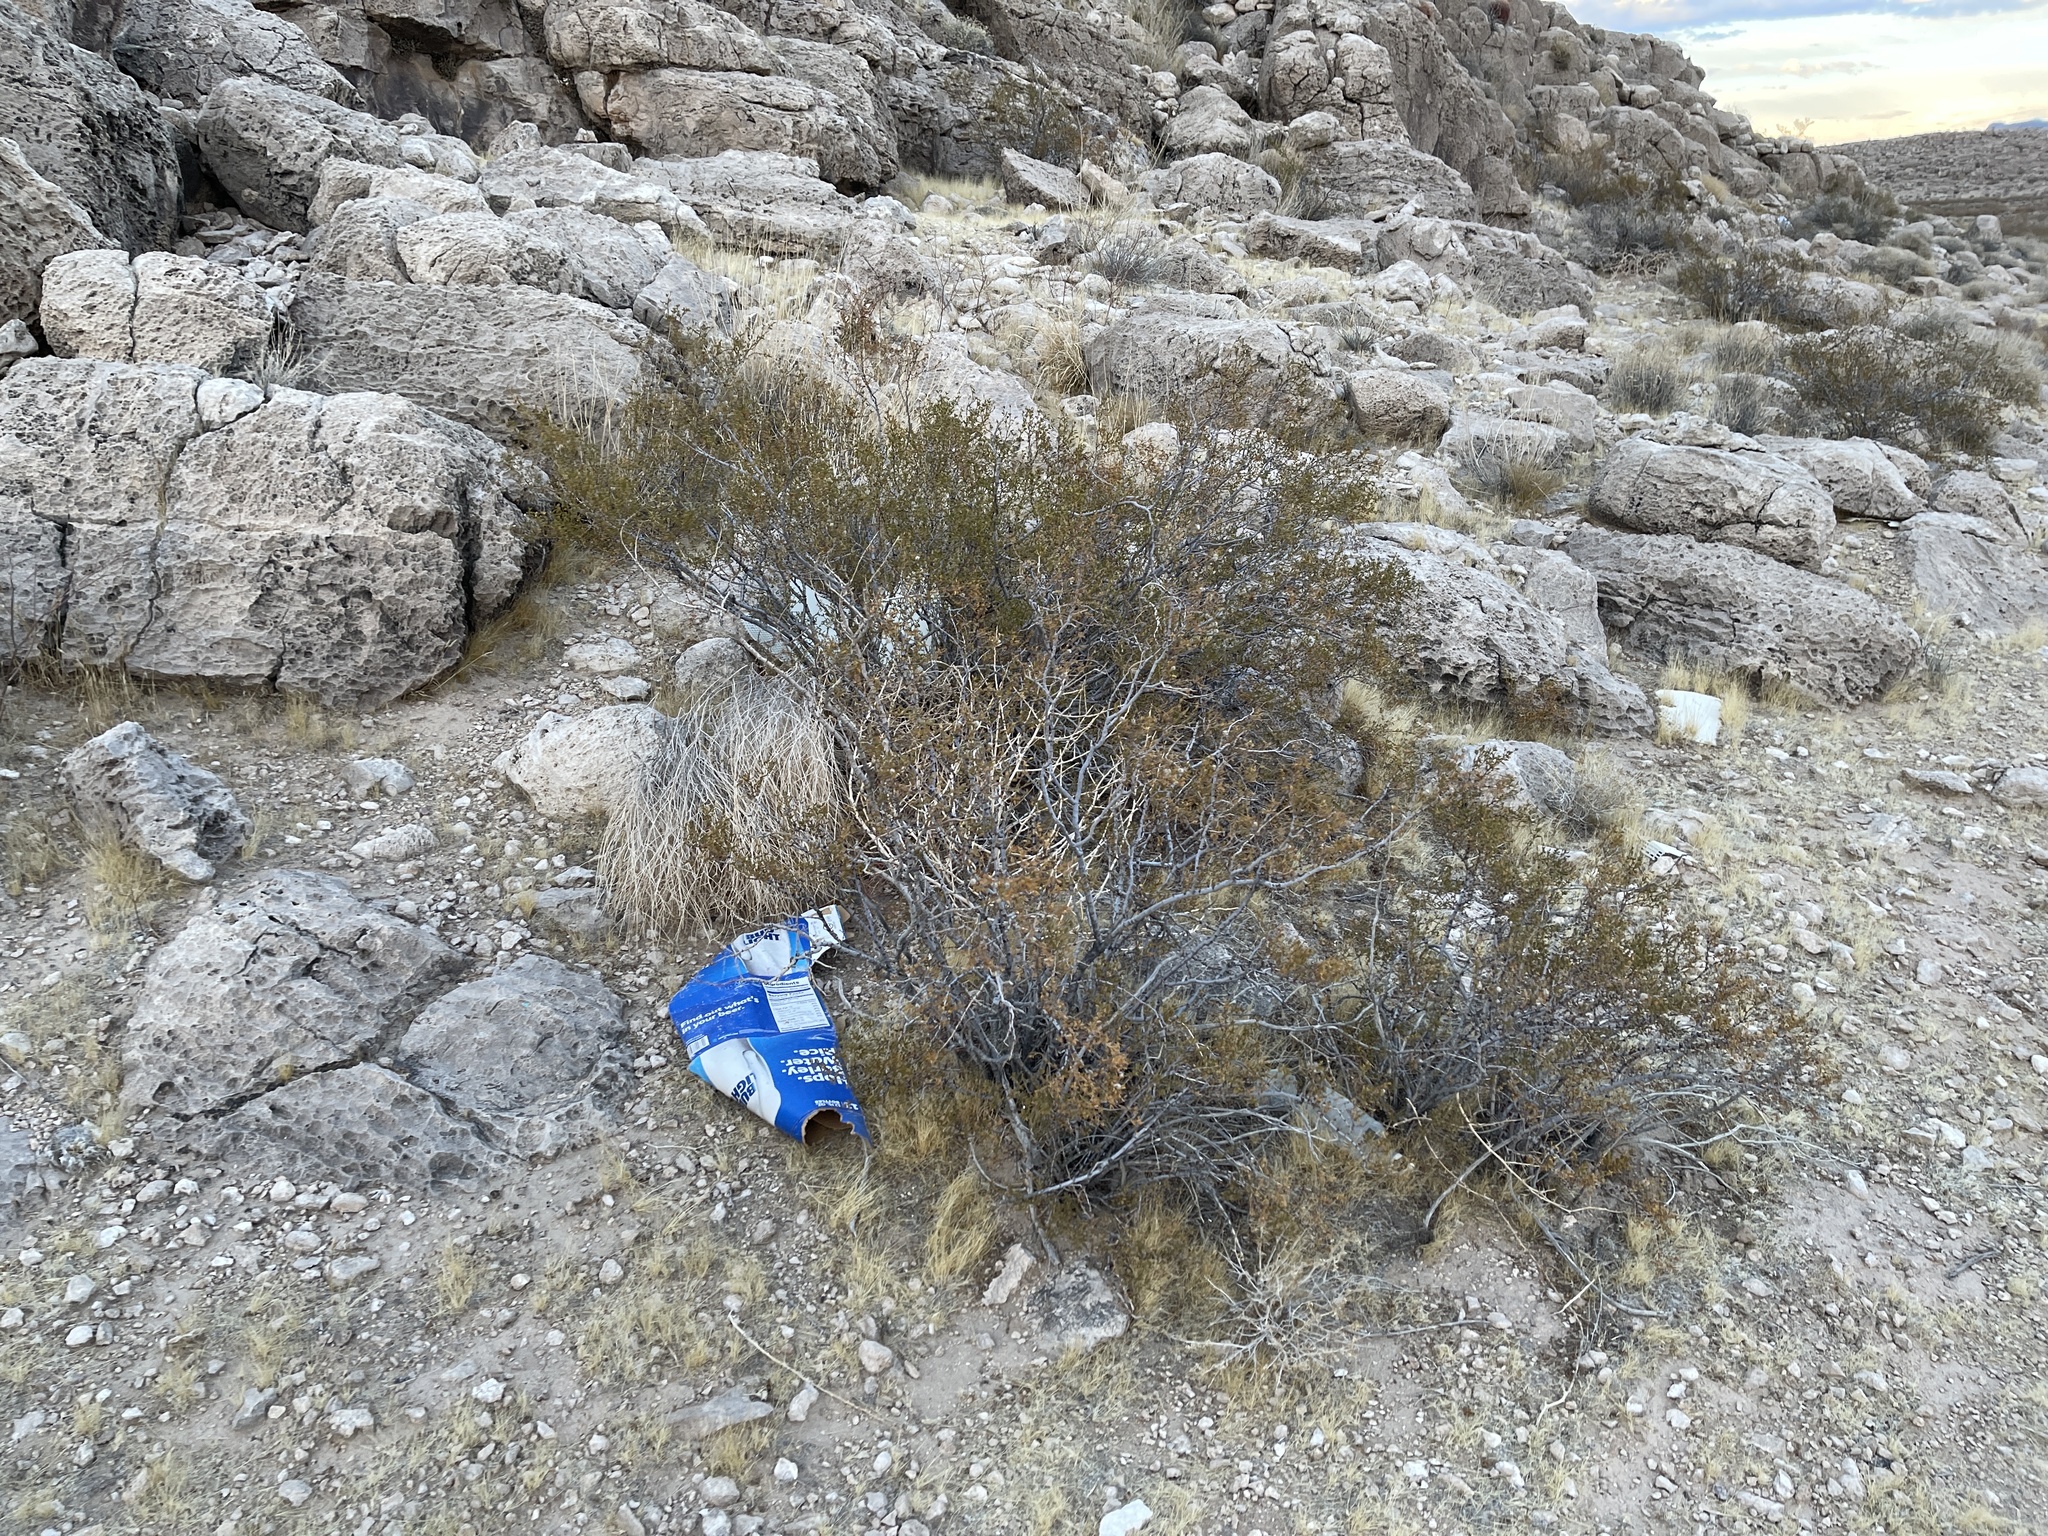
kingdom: Plantae
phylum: Tracheophyta
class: Magnoliopsida
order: Zygophyllales
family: Zygophyllaceae
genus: Larrea
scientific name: Larrea tridentata
